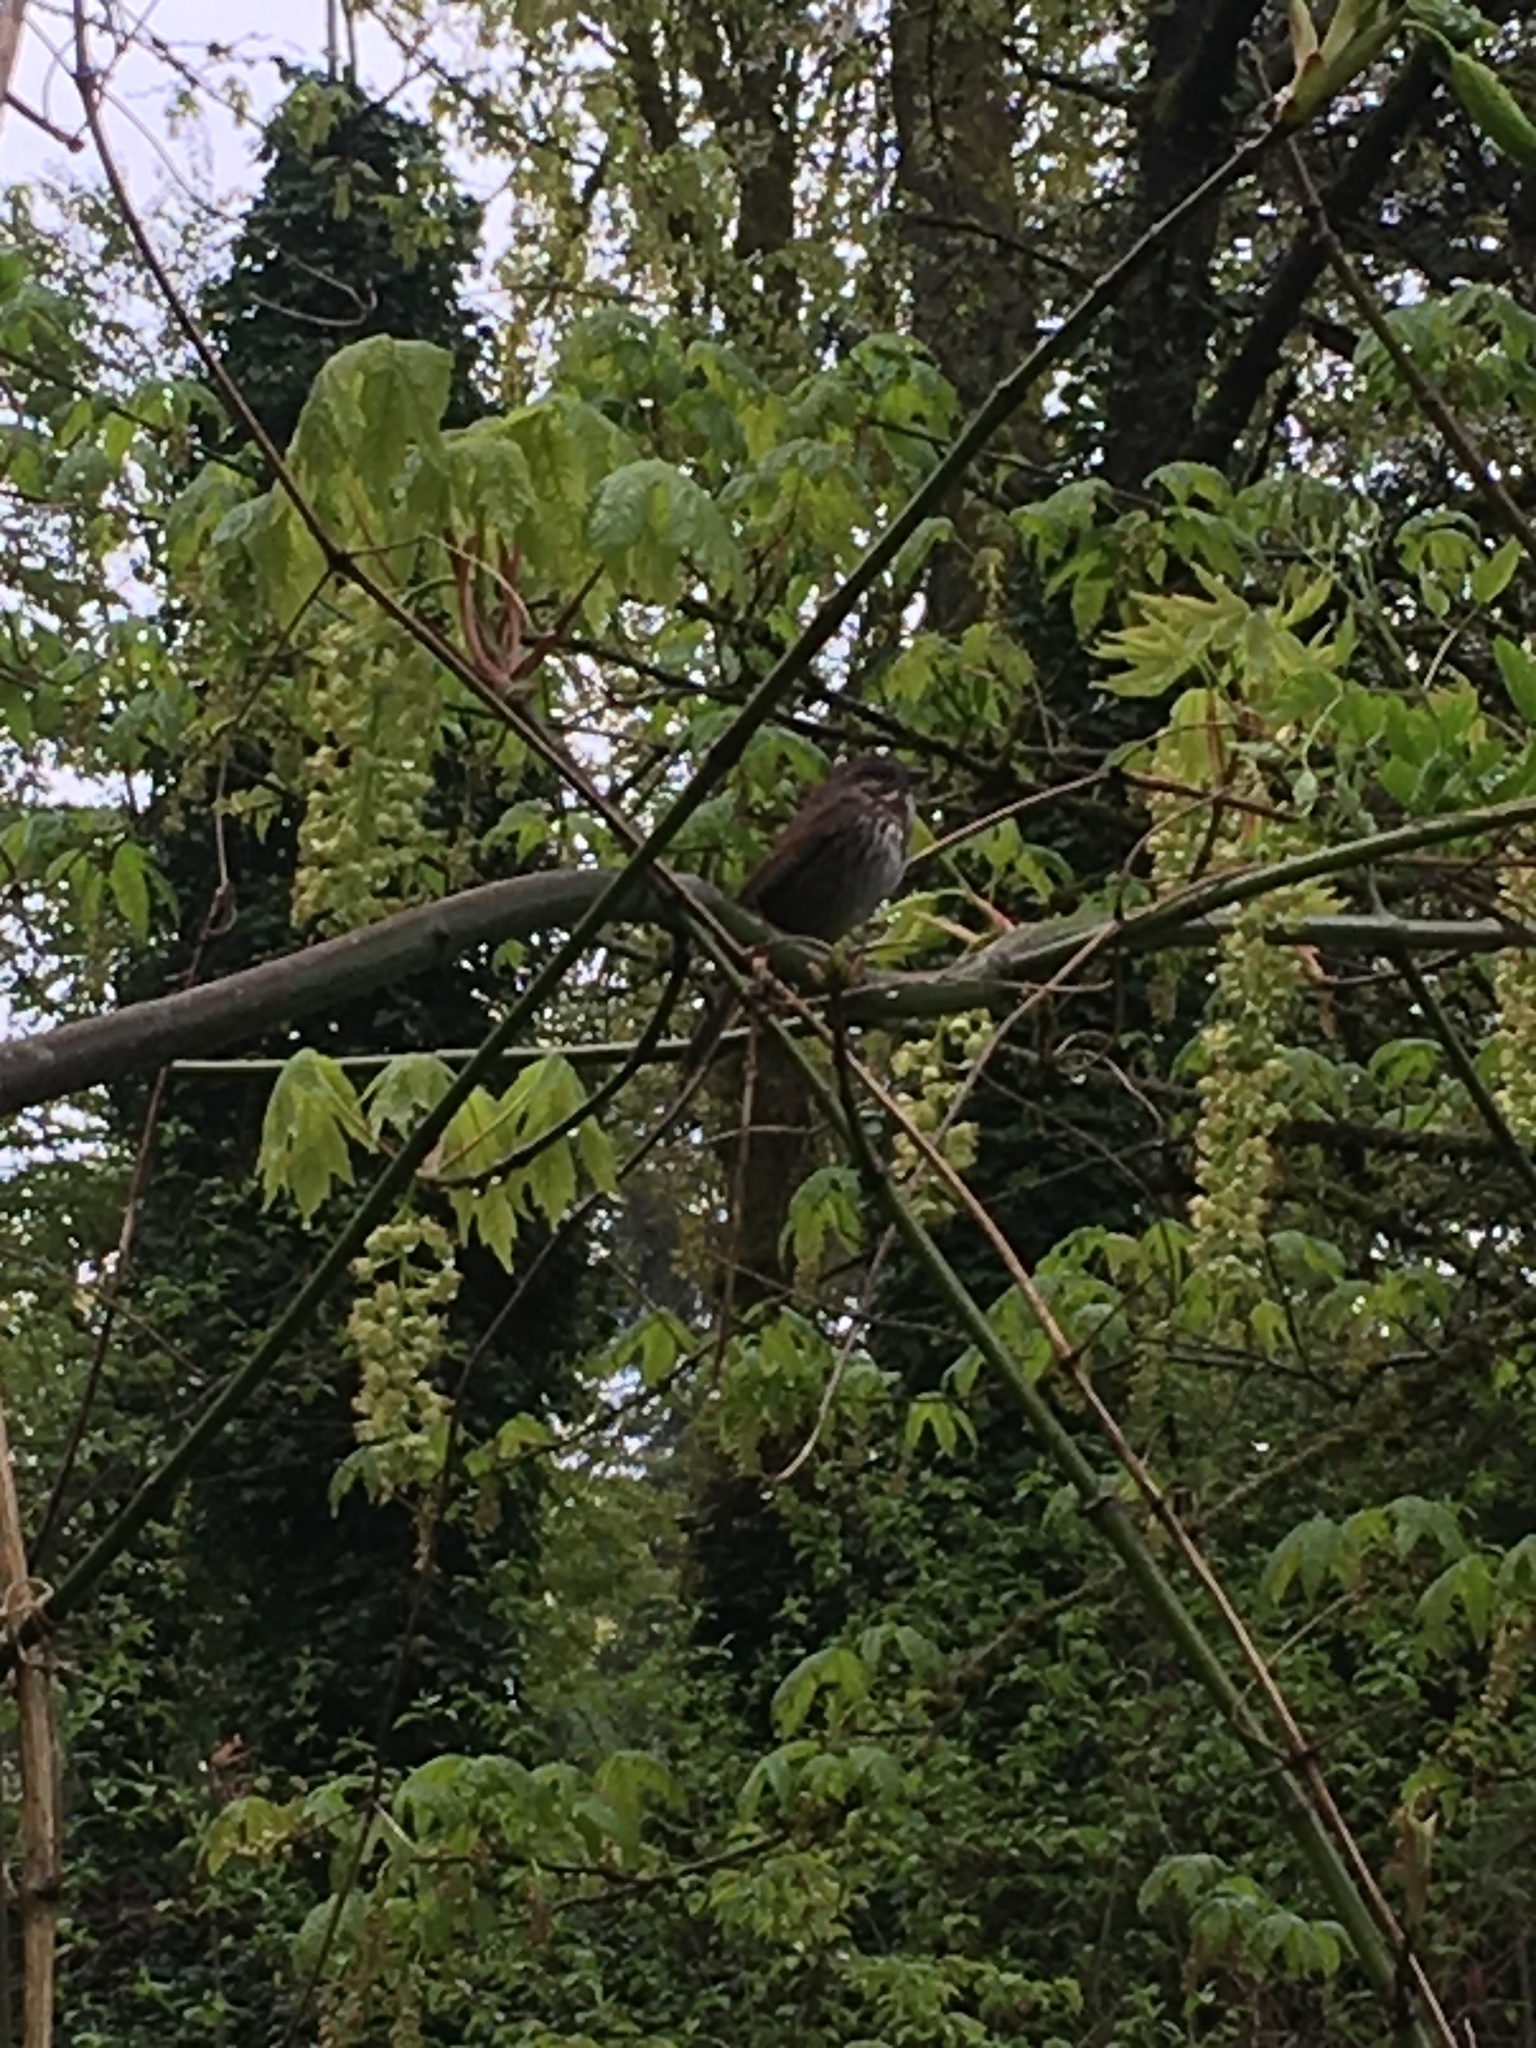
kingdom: Animalia
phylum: Chordata
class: Aves
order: Passeriformes
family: Passerellidae
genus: Melospiza
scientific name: Melospiza melodia
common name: Song sparrow
